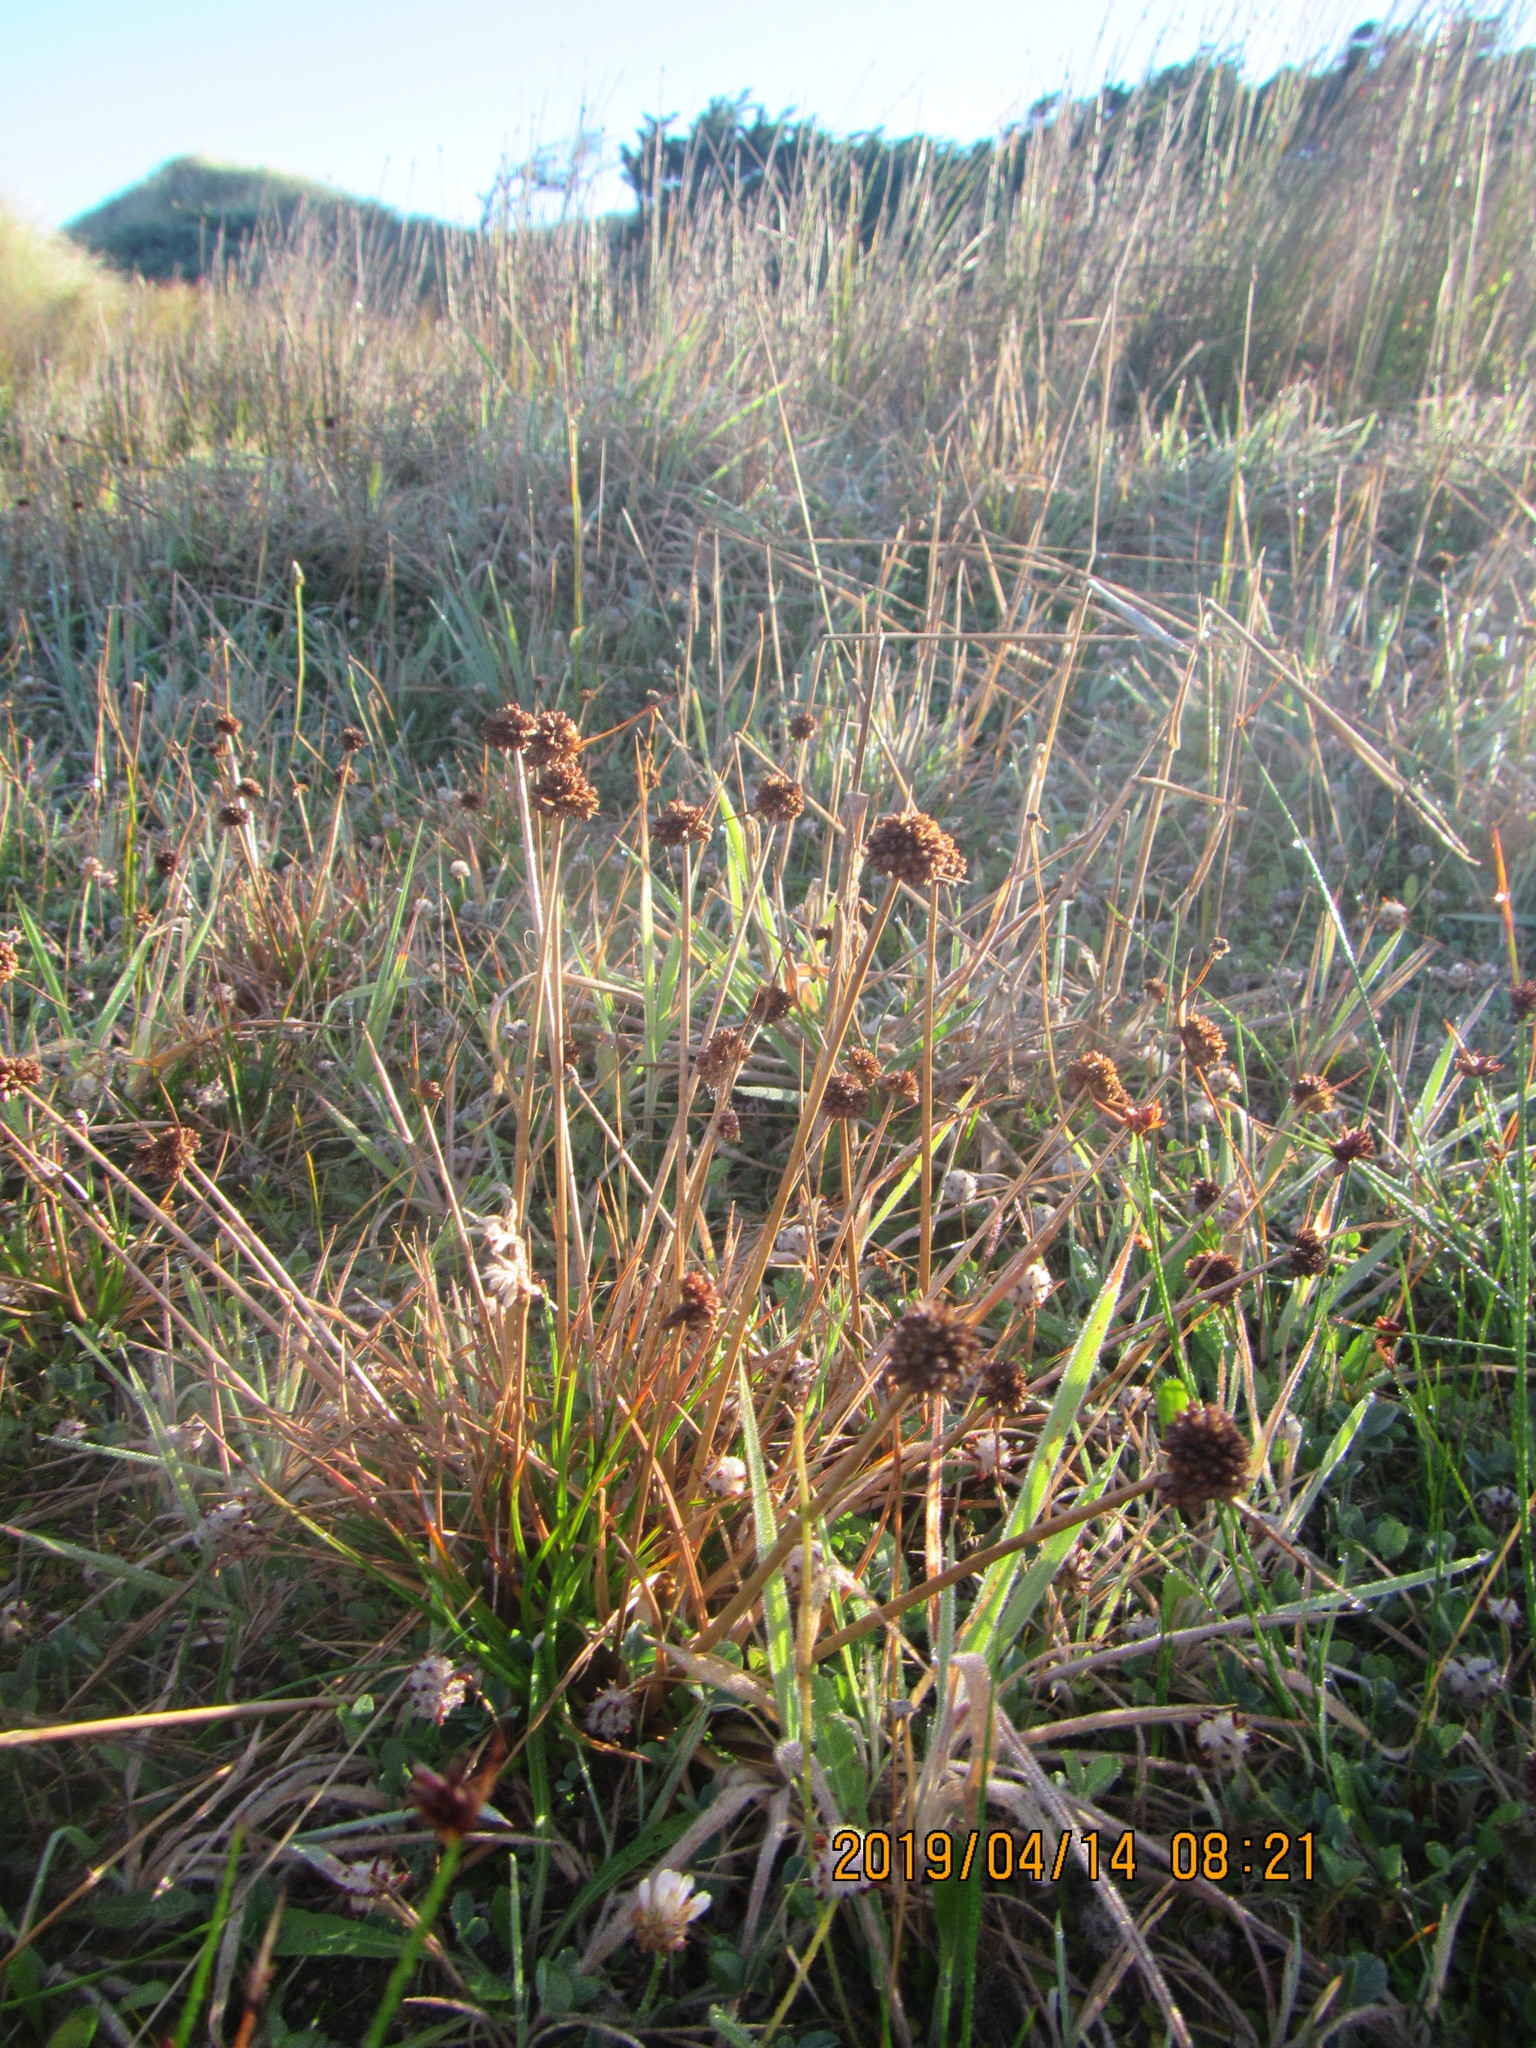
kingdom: Plantae
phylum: Tracheophyta
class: Liliopsida
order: Poales
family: Juncaceae
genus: Juncus
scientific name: Juncus caespiticius
